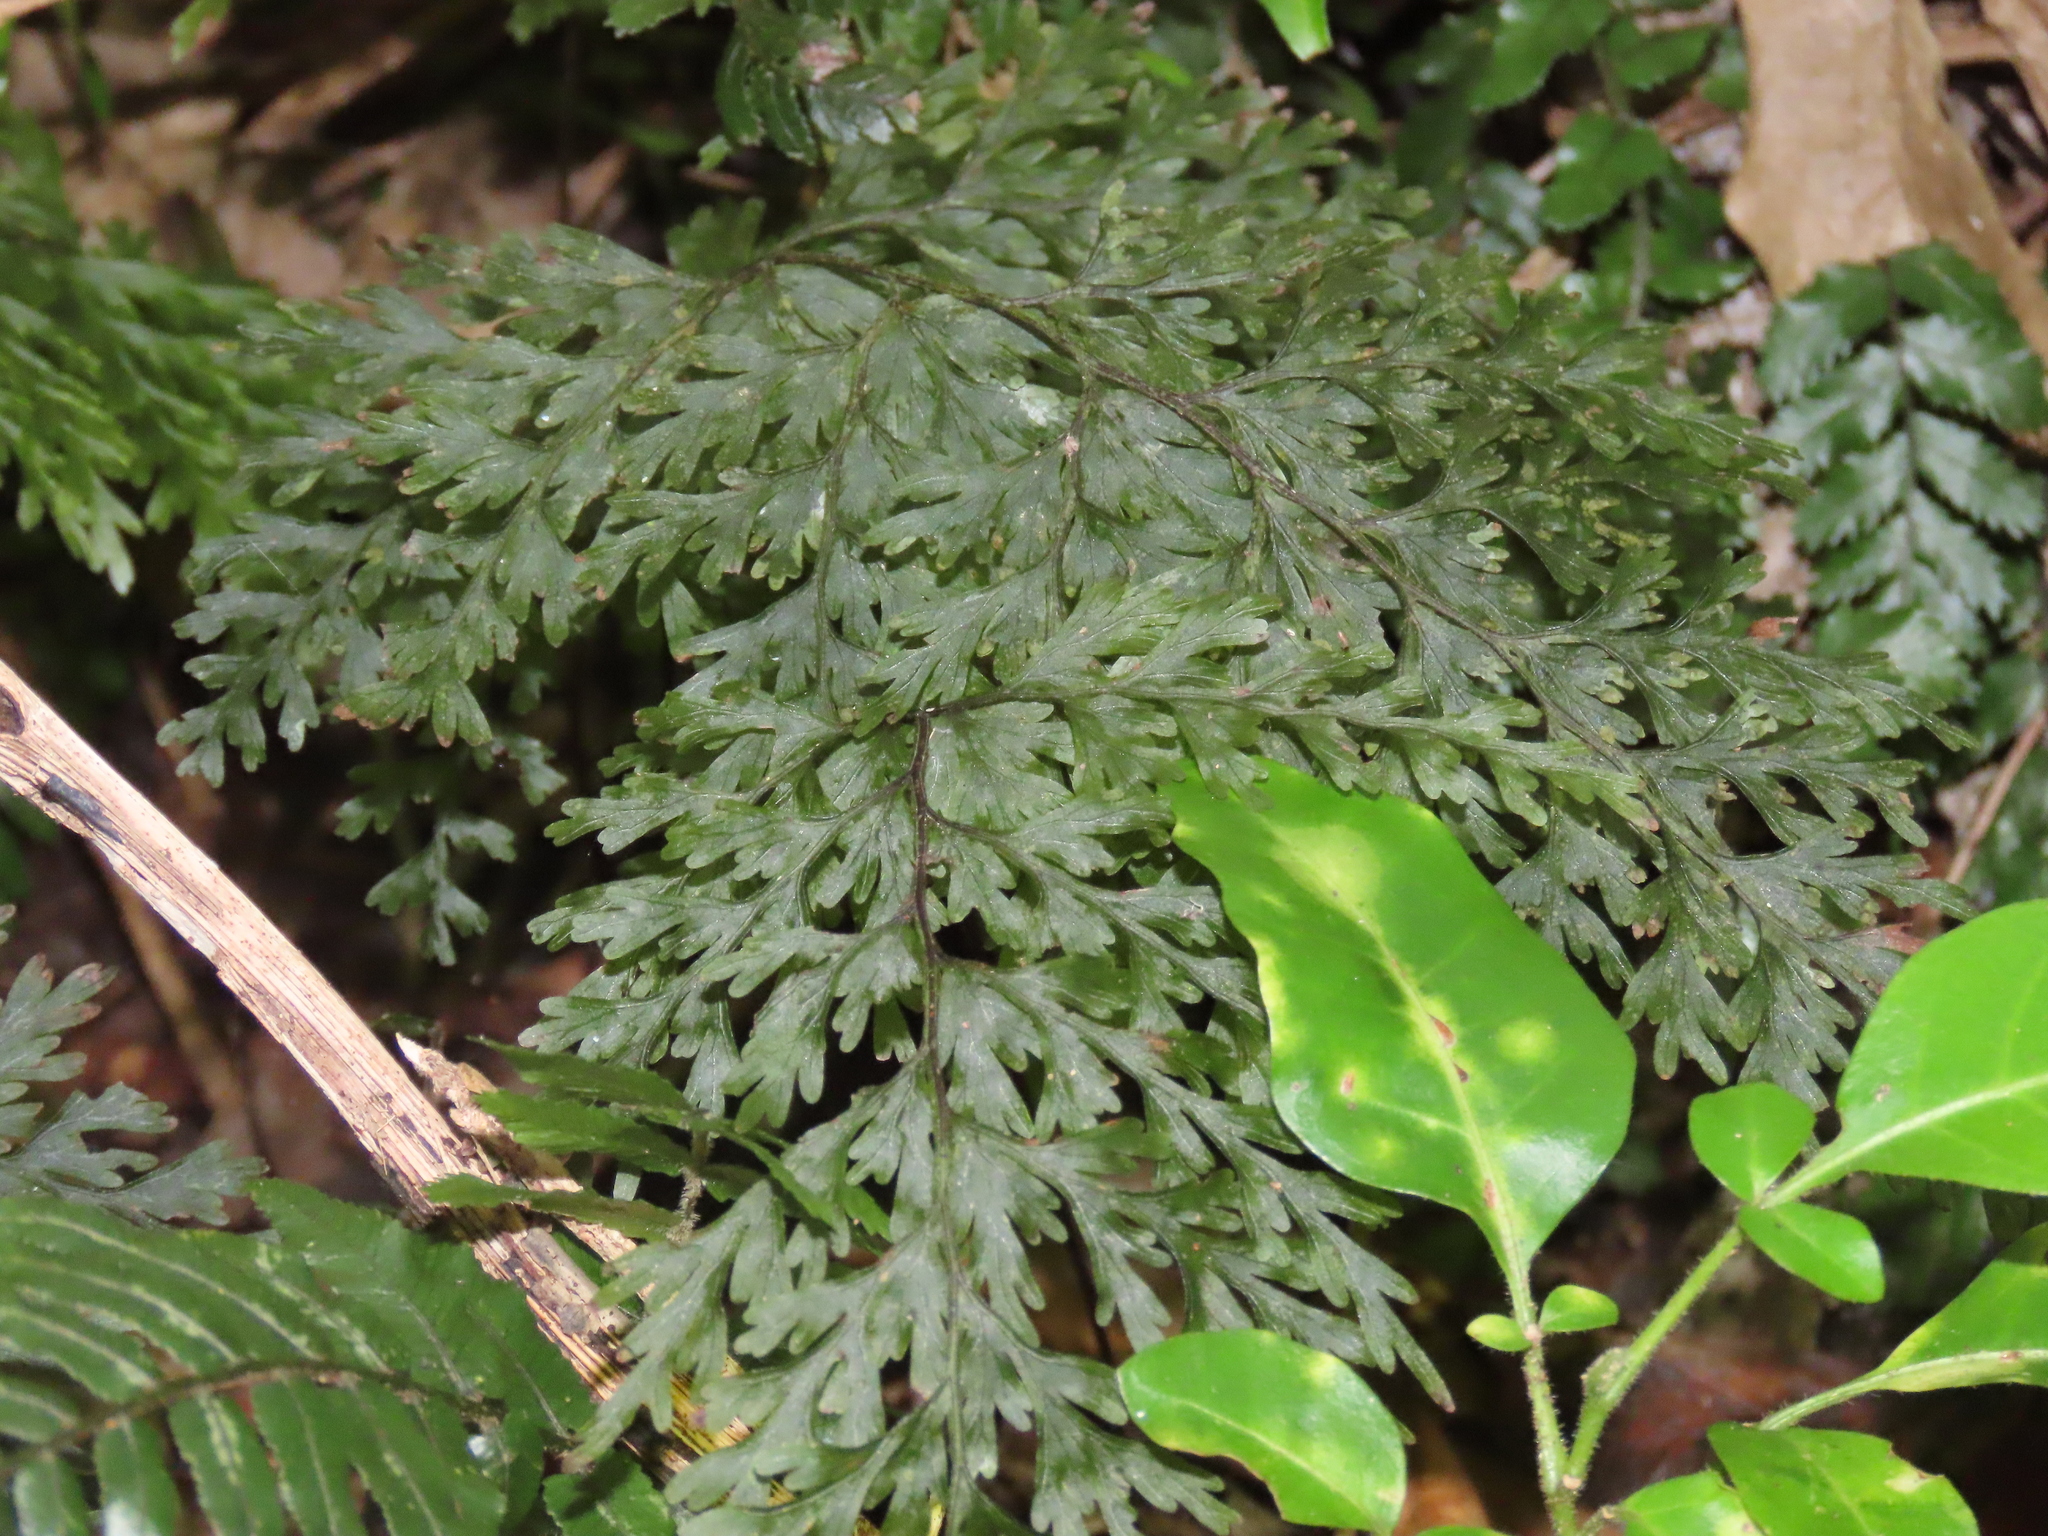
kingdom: Plantae
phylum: Tracheophyta
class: Polypodiopsida
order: Hymenophyllales
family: Hymenophyllaceae
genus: Hymenophyllum
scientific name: Hymenophyllum demissum
